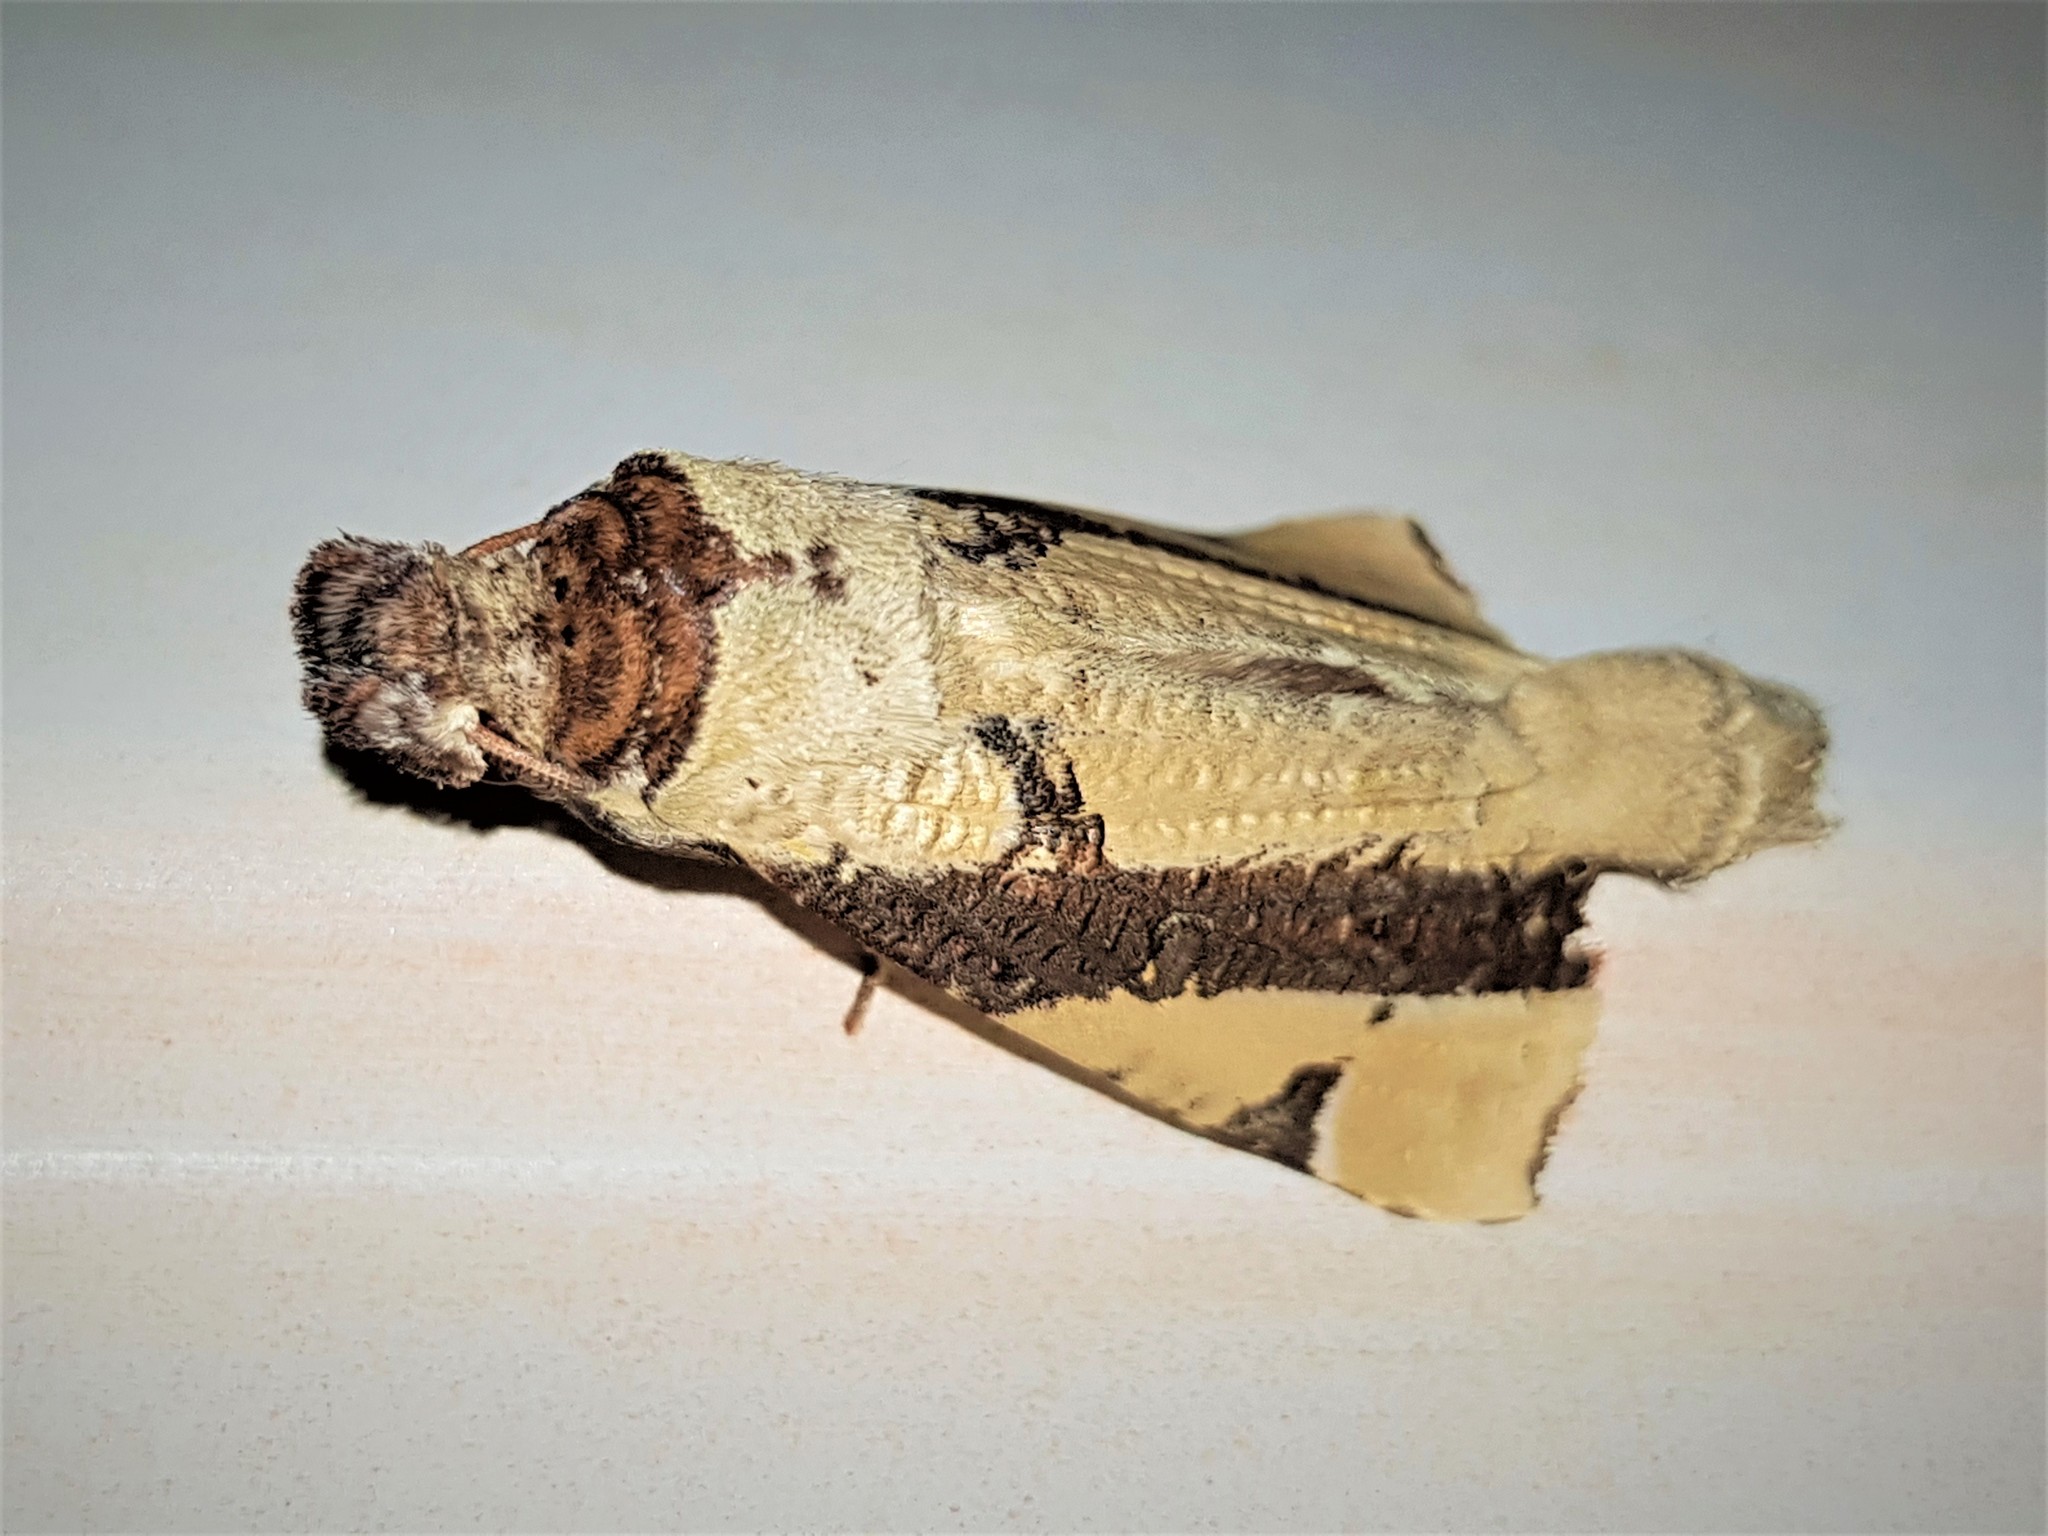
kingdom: Animalia
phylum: Arthropoda
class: Insecta
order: Lepidoptera
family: Notodontidae
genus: Pseudantiora
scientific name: Pseudantiora contingata
